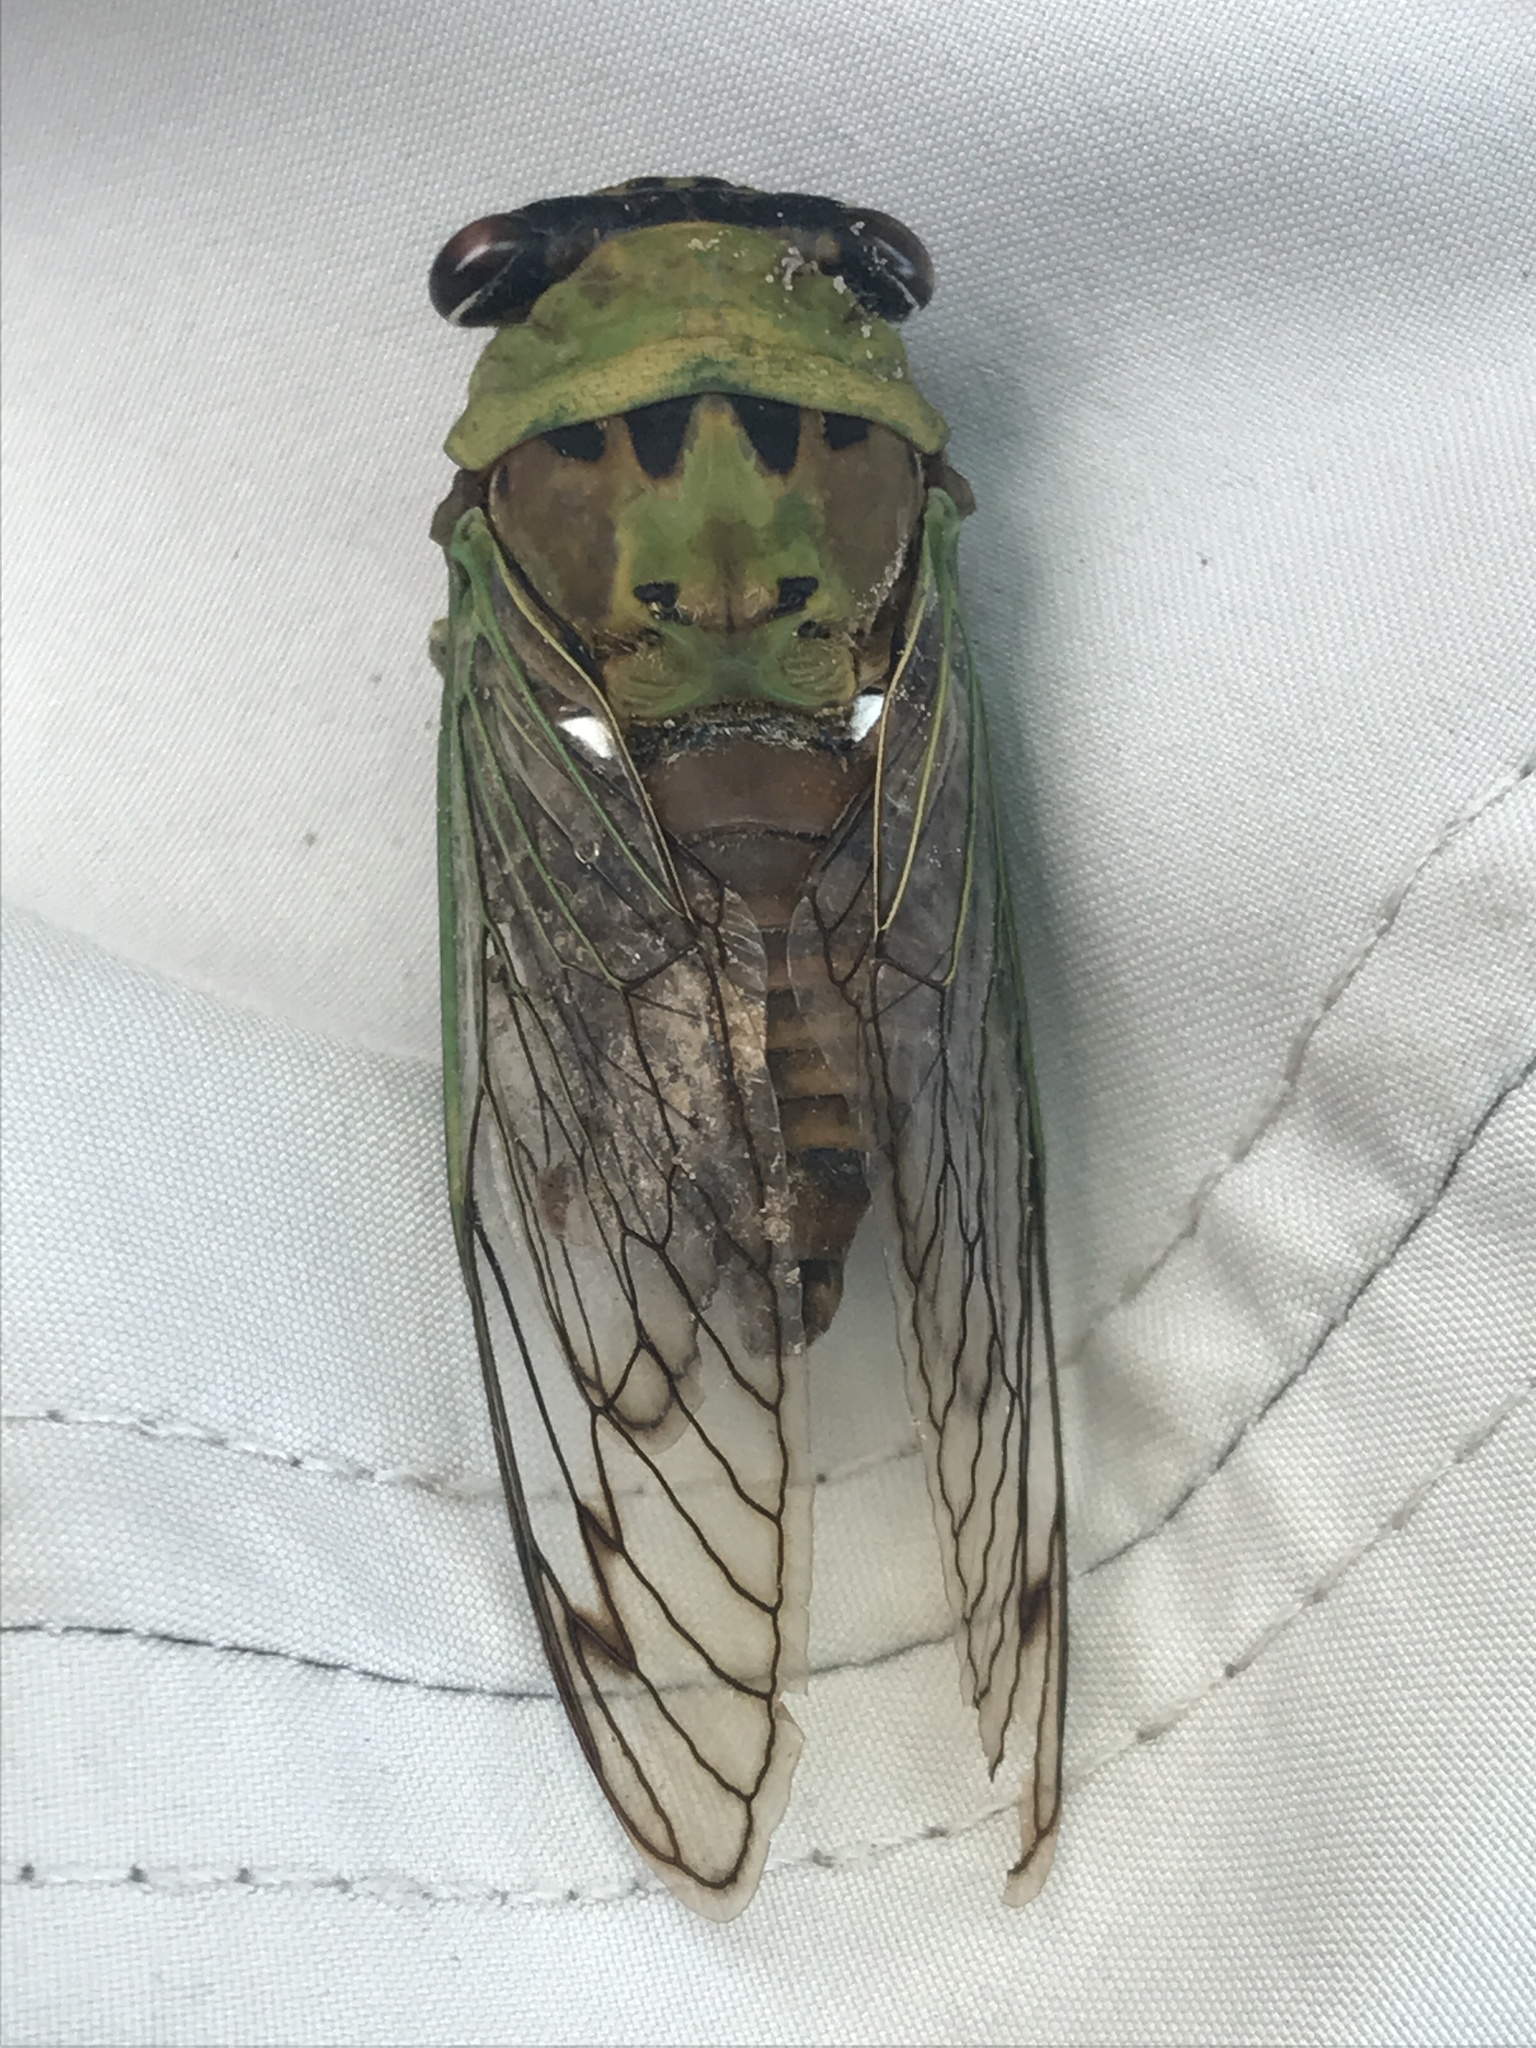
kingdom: Animalia
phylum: Arthropoda
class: Insecta
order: Hemiptera
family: Cicadidae
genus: Neotibicen
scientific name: Neotibicen superbus
